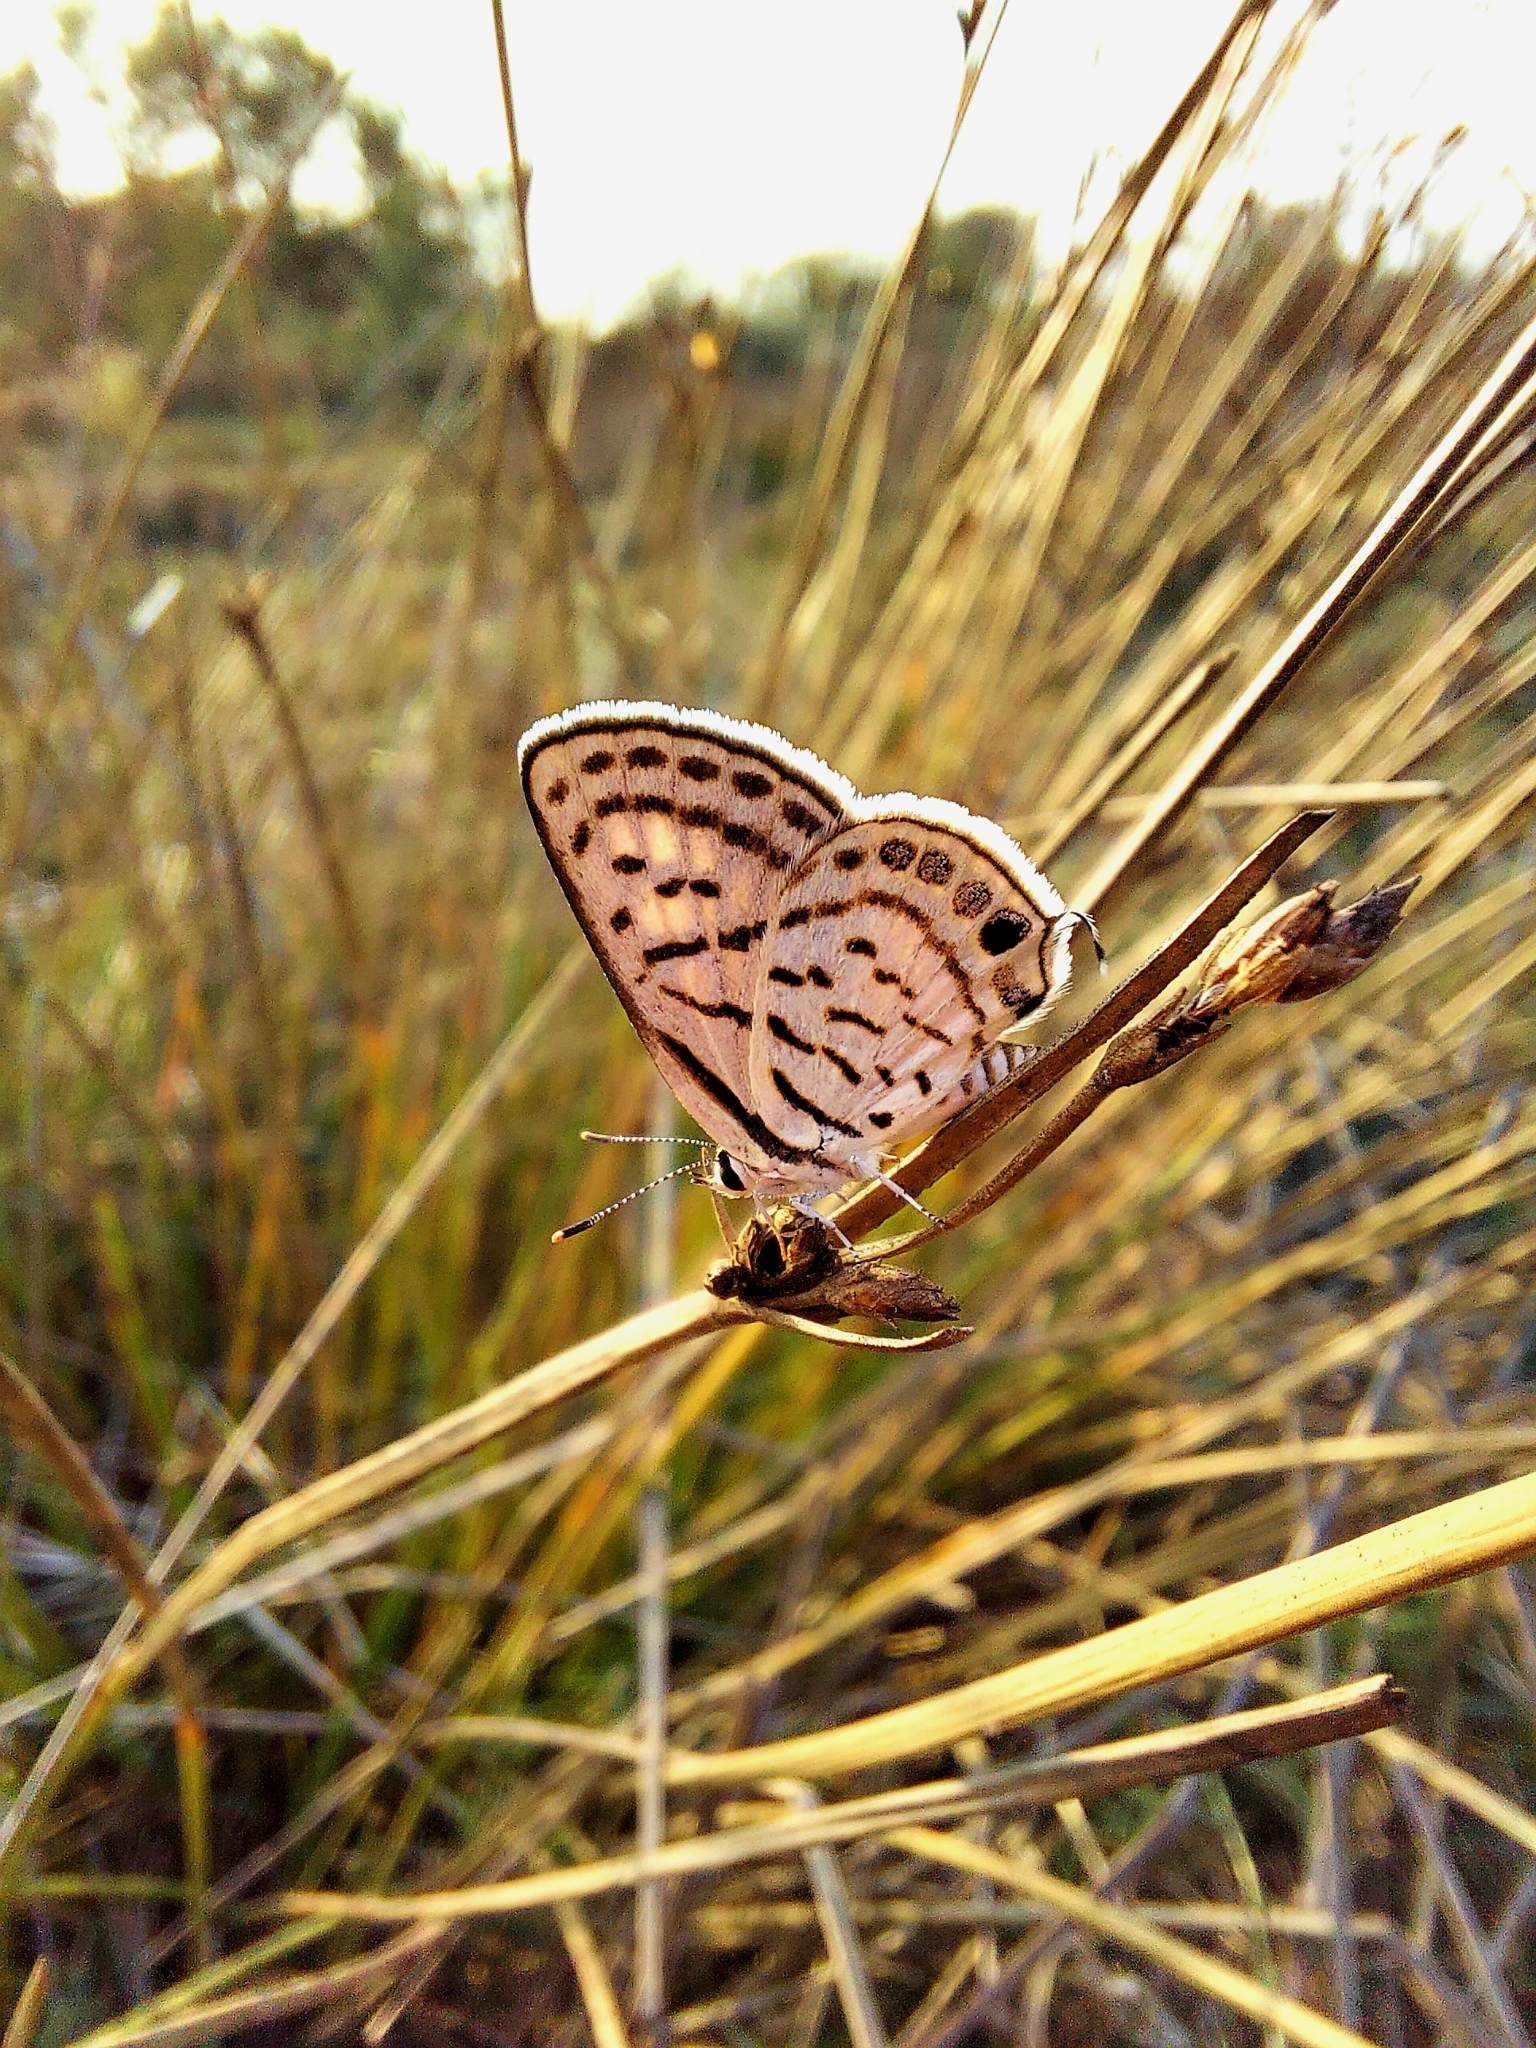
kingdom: Animalia
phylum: Arthropoda
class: Insecta
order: Lepidoptera
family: Lycaenidae
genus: Tarucus
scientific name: Tarucus
